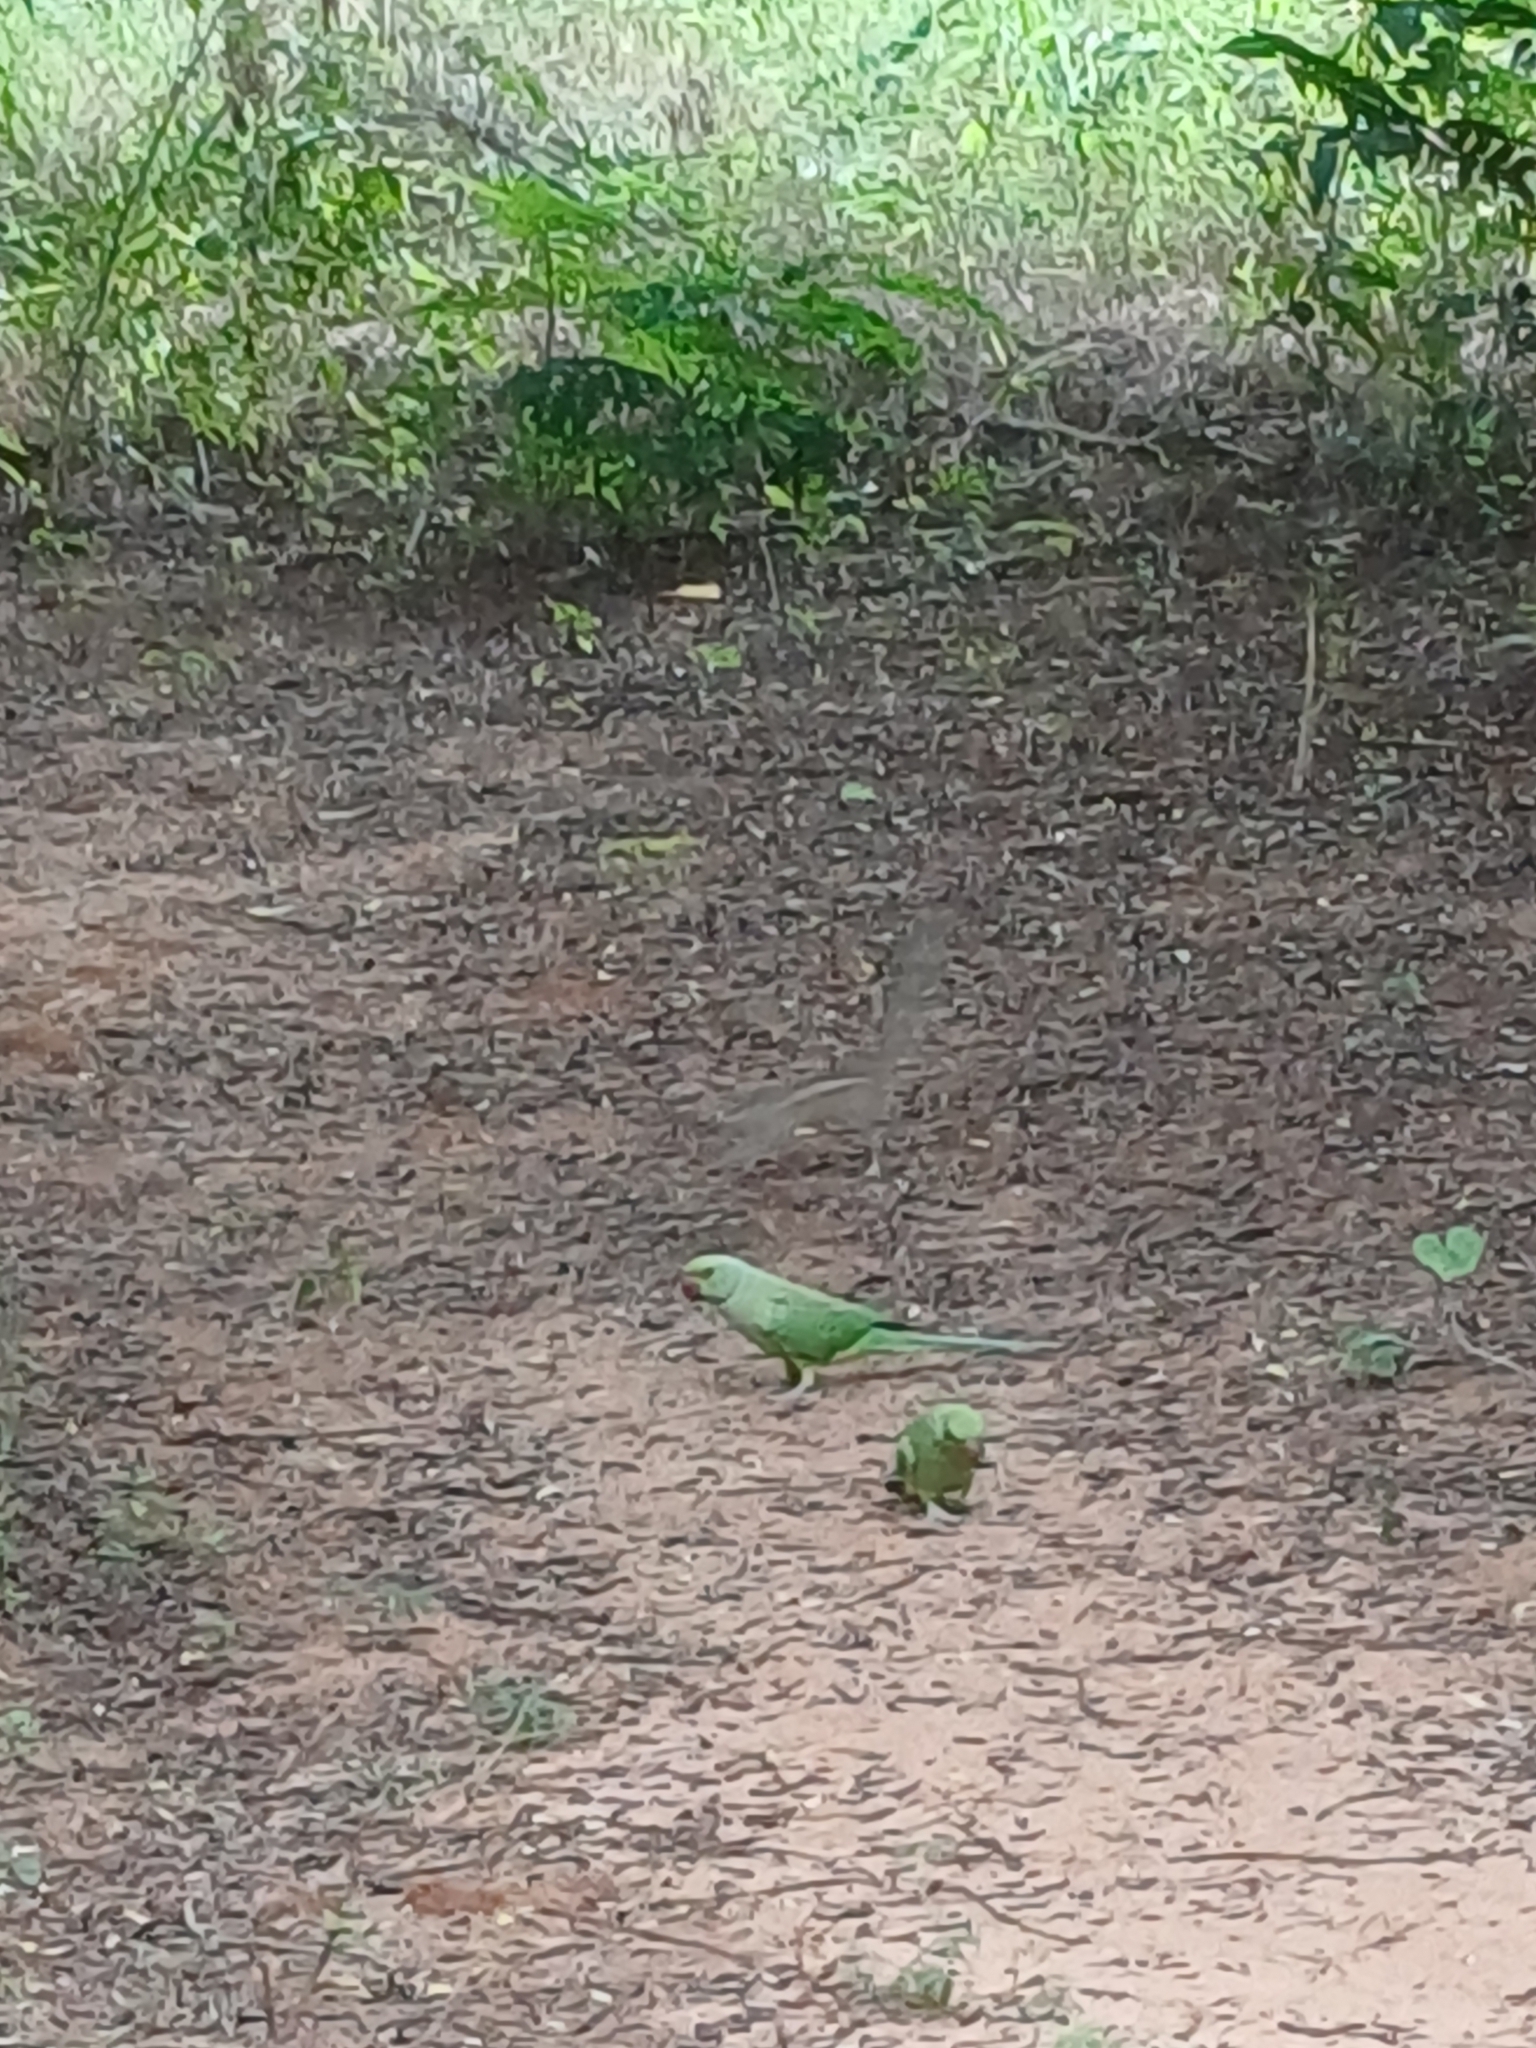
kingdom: Animalia
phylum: Chordata
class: Aves
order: Psittaciformes
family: Psittacidae
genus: Psittacula
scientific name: Psittacula krameri
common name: Rose-ringed parakeet
